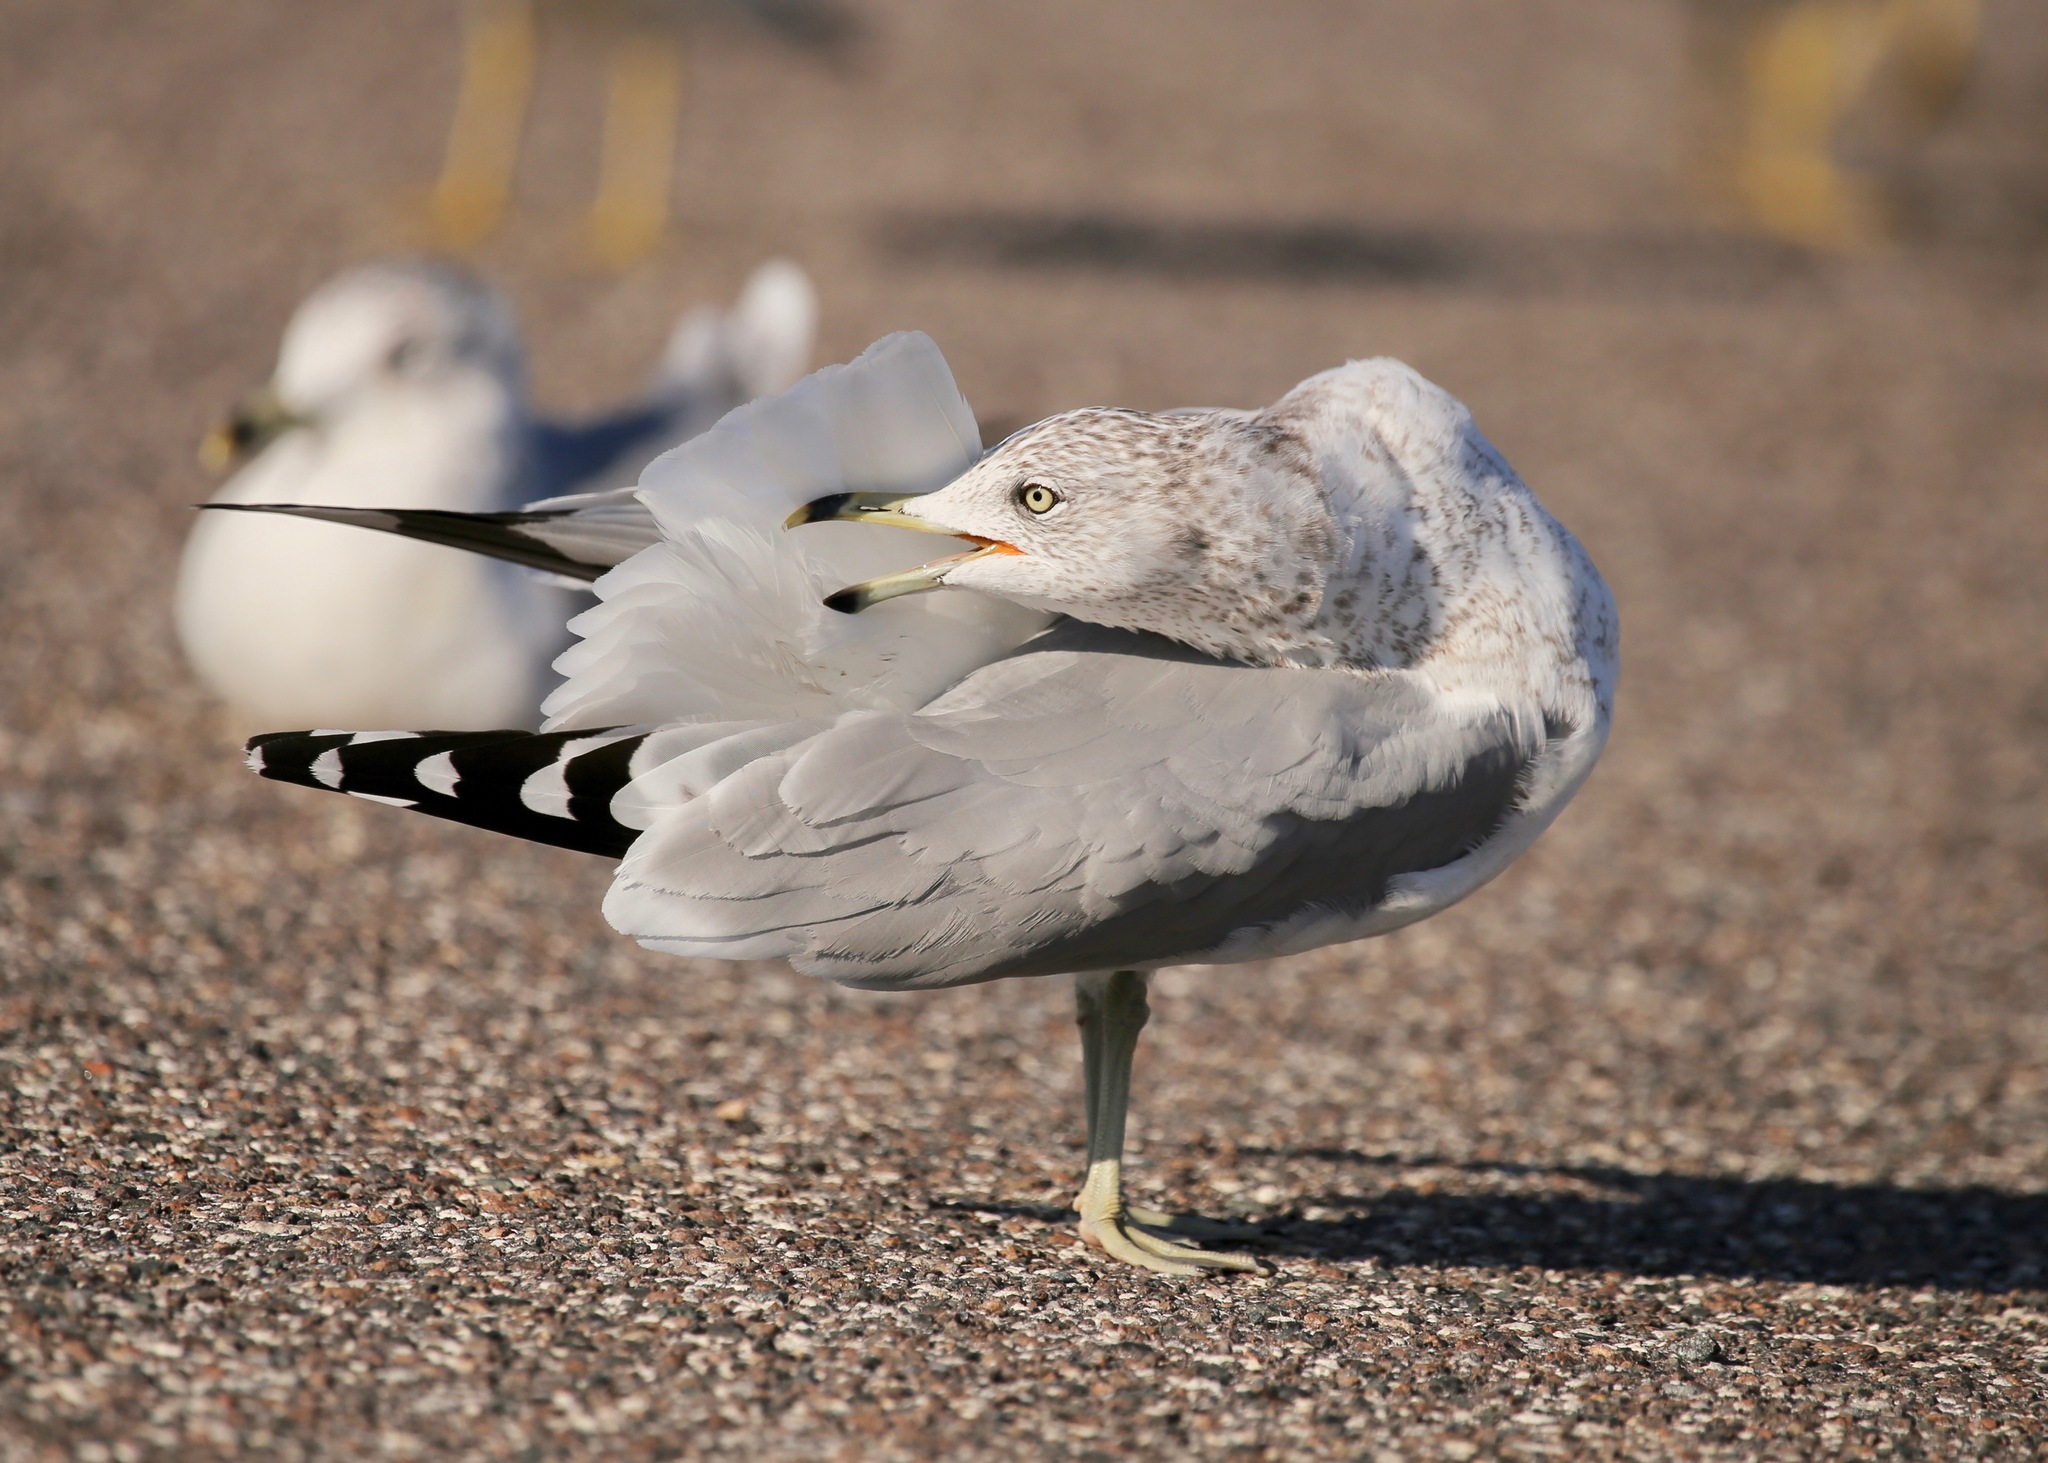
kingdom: Animalia
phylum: Chordata
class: Aves
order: Charadriiformes
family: Laridae
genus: Larus
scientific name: Larus delawarensis
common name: Ring-billed gull
